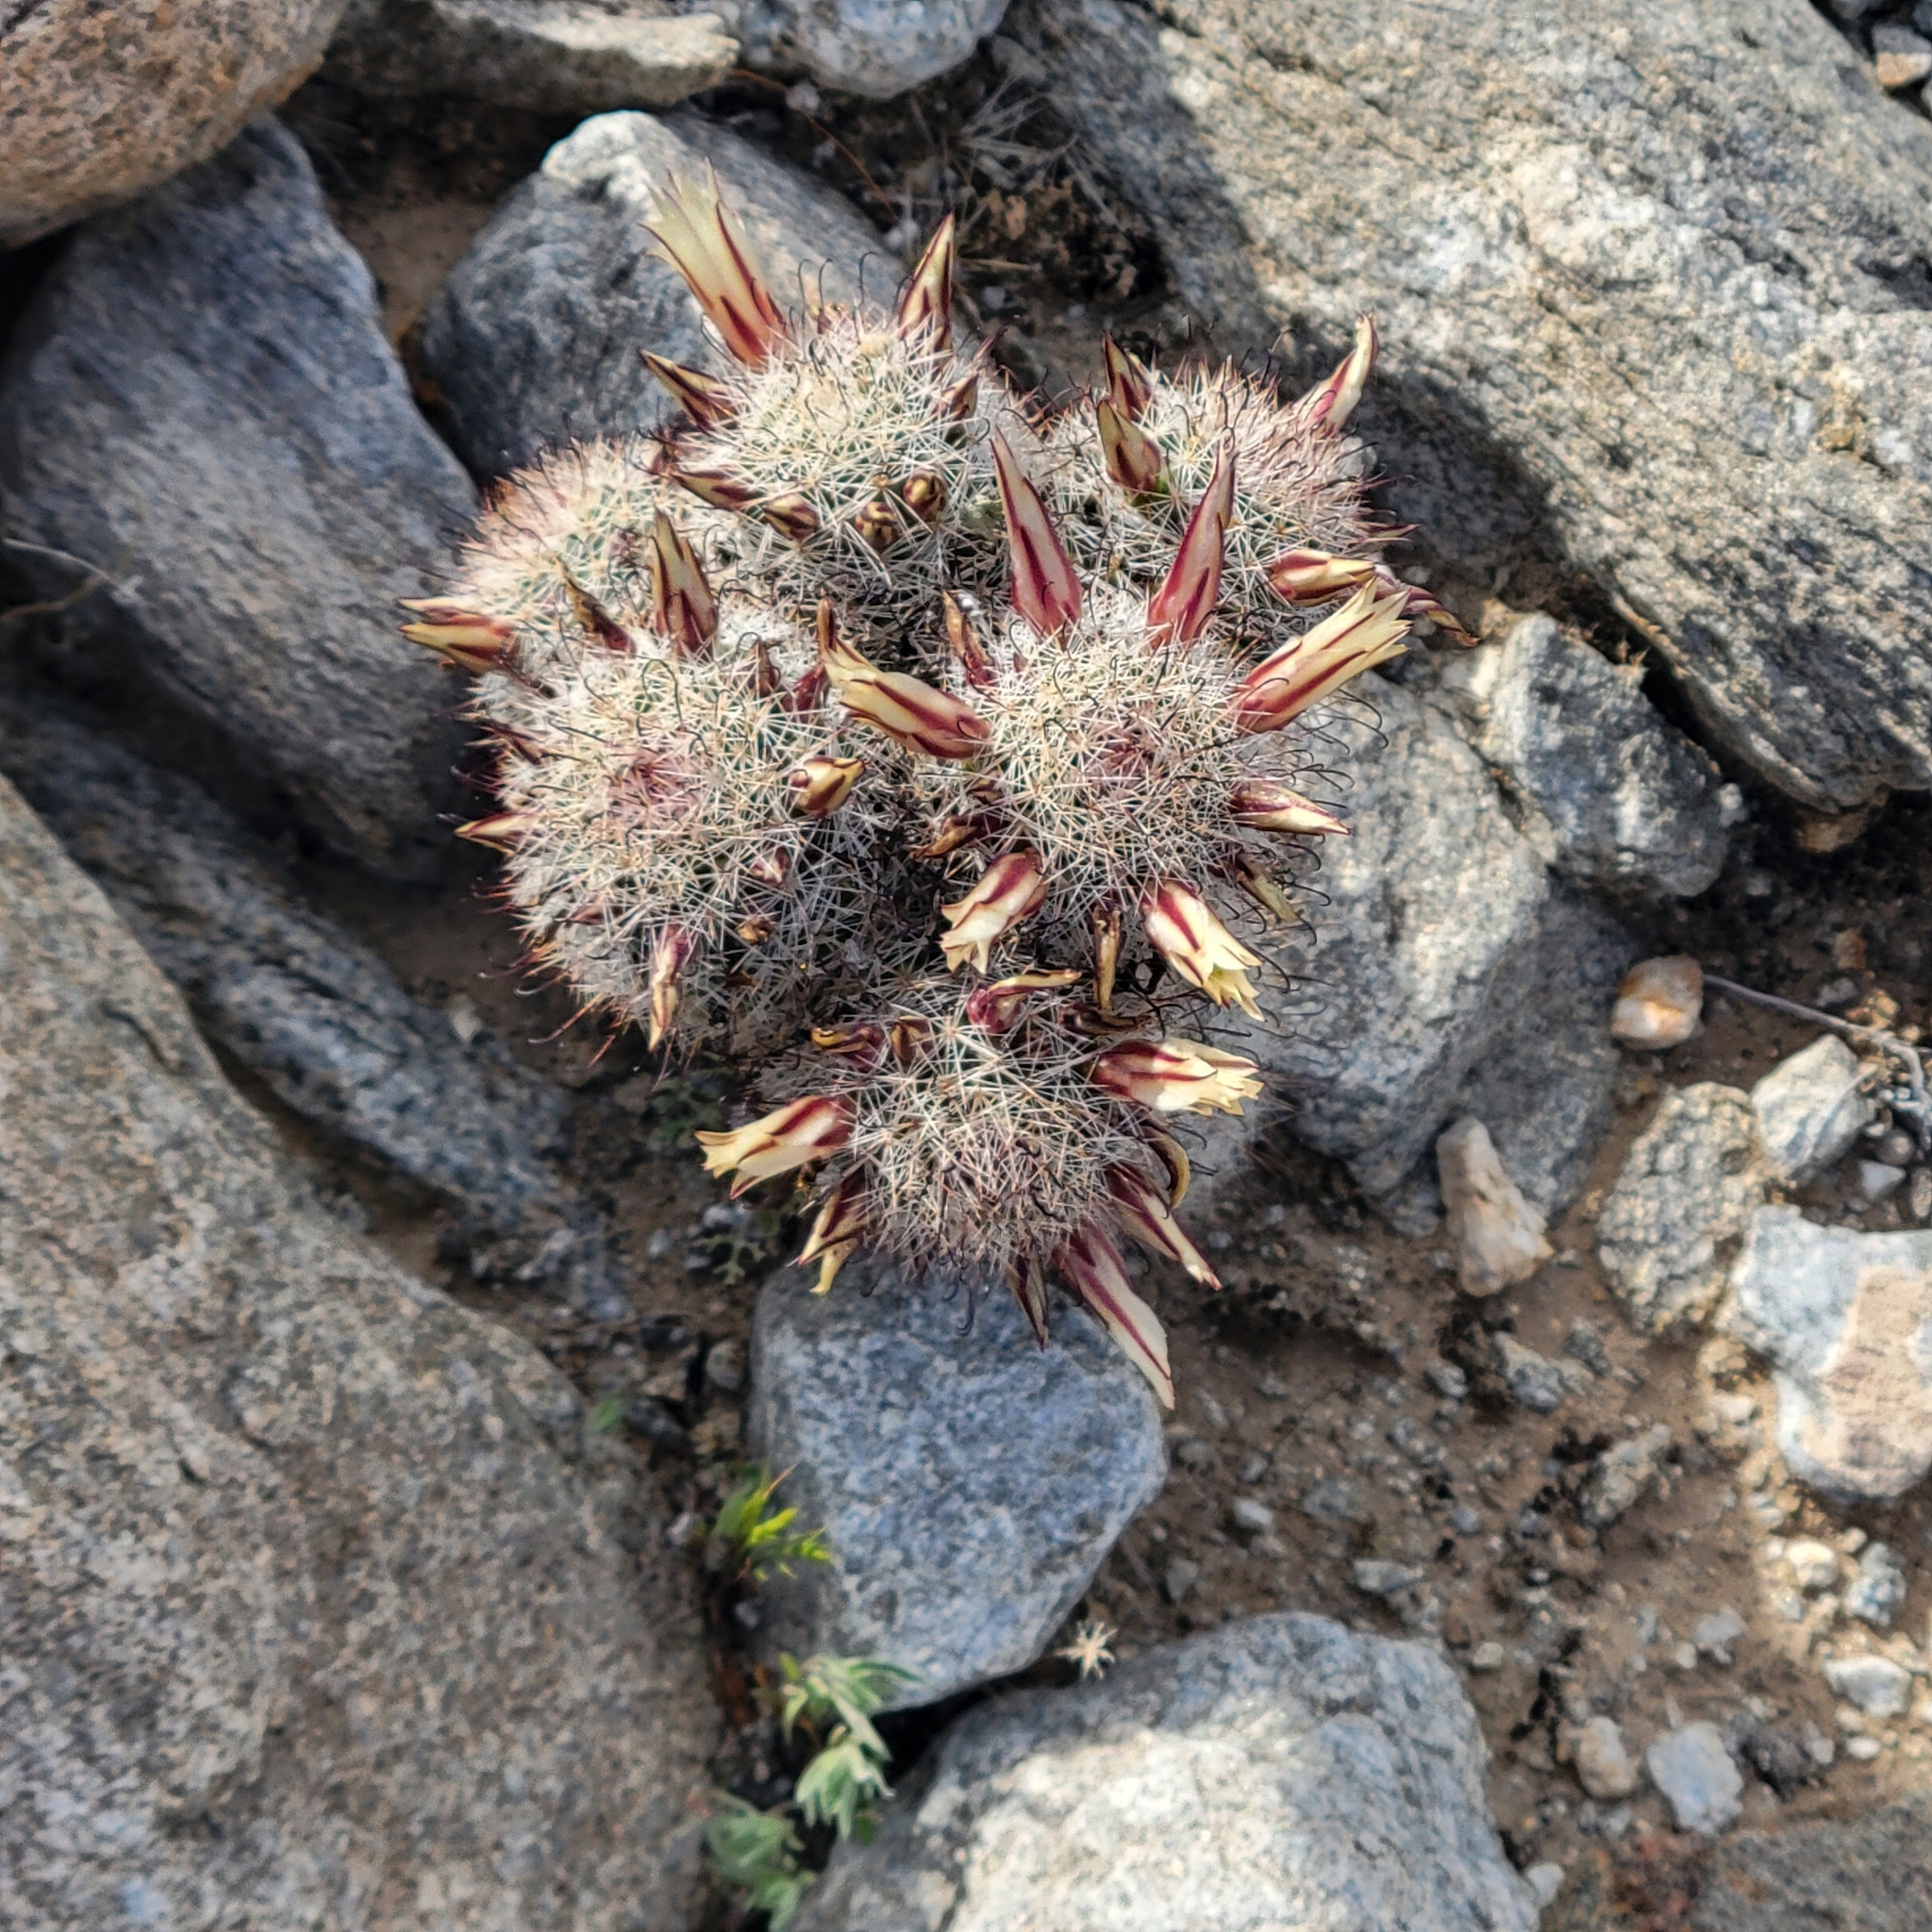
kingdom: Plantae
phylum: Tracheophyta
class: Magnoliopsida
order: Caryophyllales
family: Cactaceae
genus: Cochemiea
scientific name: Cochemiea dioica
